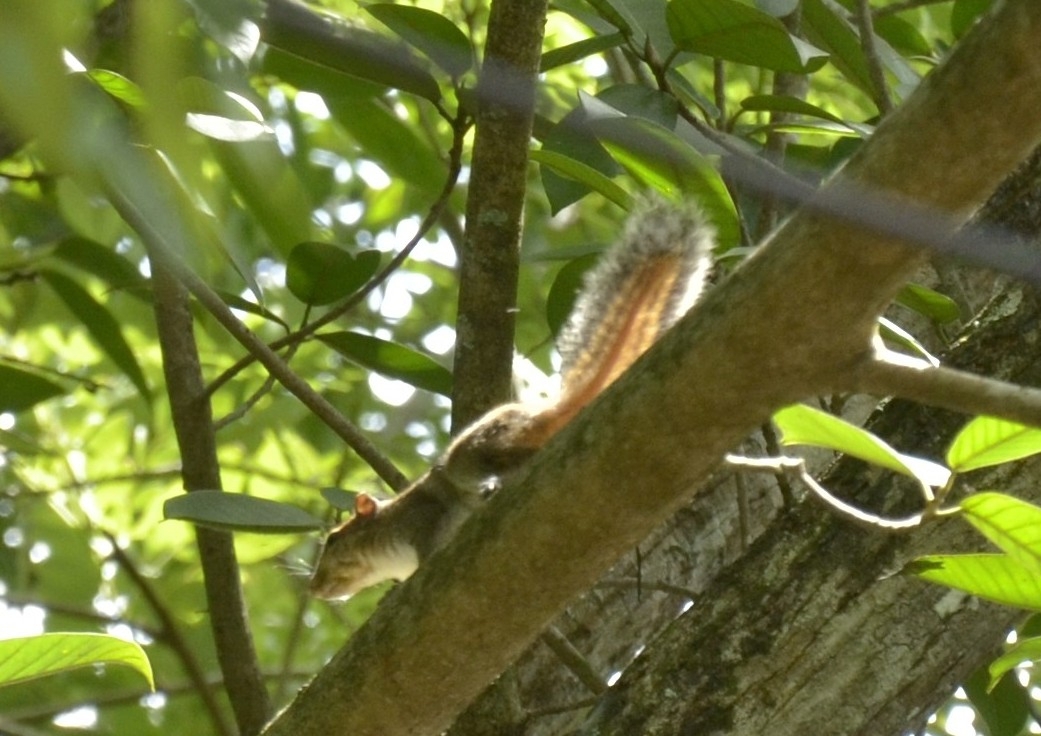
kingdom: Animalia
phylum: Chordata
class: Mammalia
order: Rodentia
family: Sciuridae
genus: Funambulus
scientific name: Funambulus tristriatus
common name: Jungle palm squirrel
